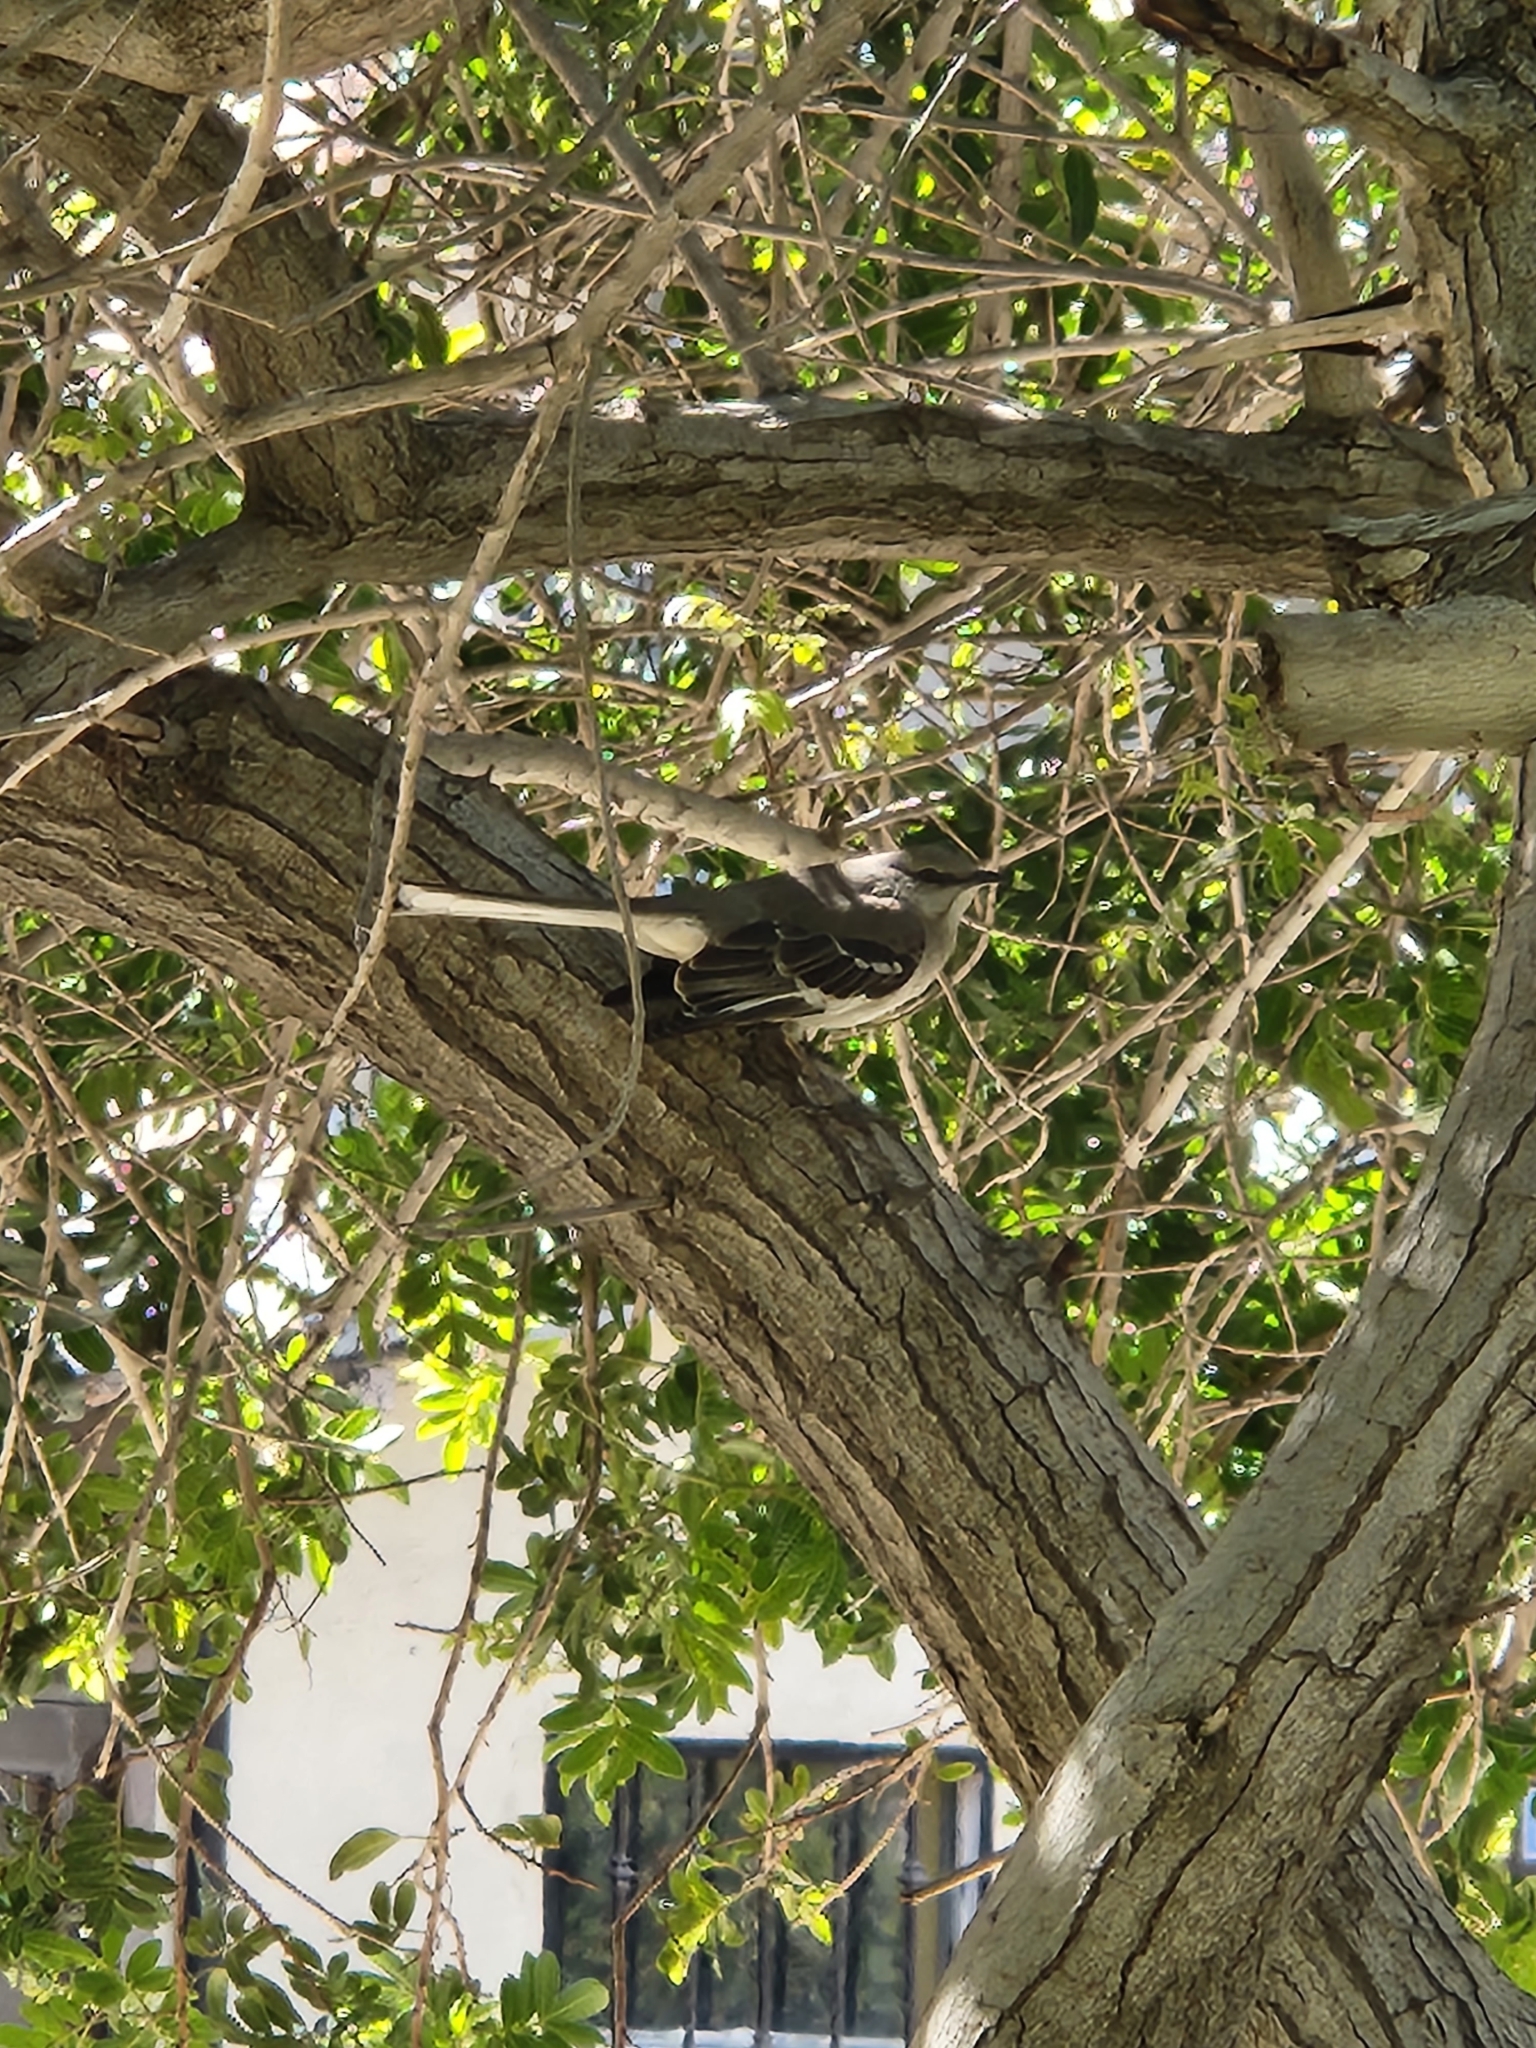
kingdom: Animalia
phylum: Chordata
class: Aves
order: Passeriformes
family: Mimidae
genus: Mimus
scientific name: Mimus polyglottos
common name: Northern mockingbird
